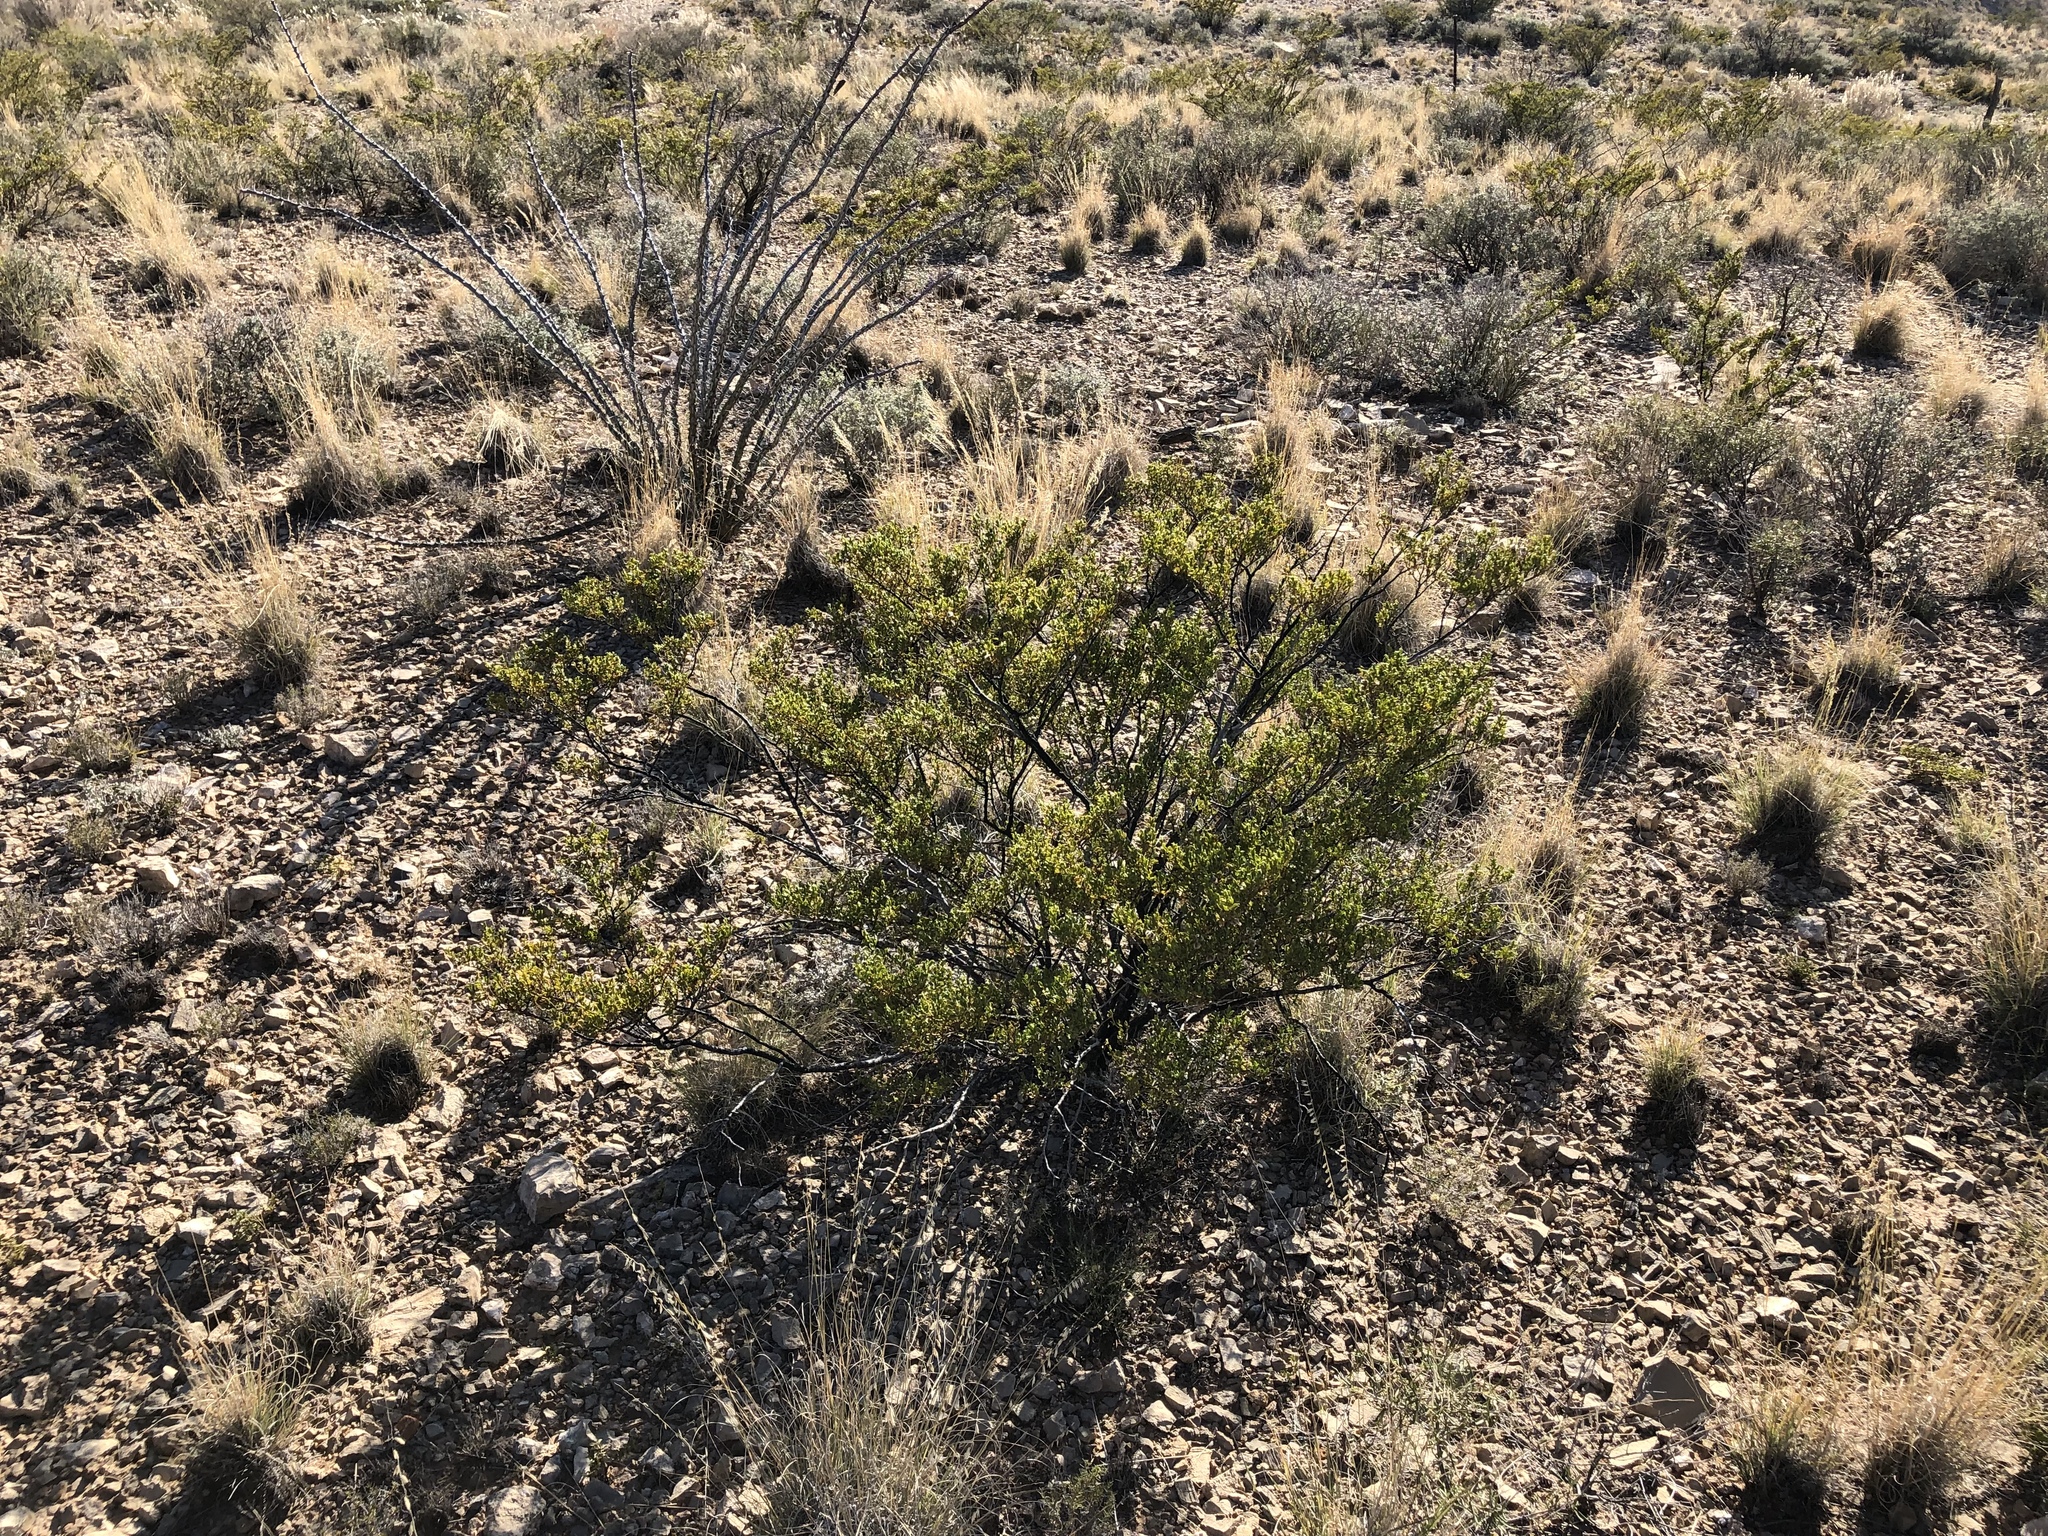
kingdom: Plantae
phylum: Tracheophyta
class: Magnoliopsida
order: Zygophyllales
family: Zygophyllaceae
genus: Larrea
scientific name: Larrea tridentata
